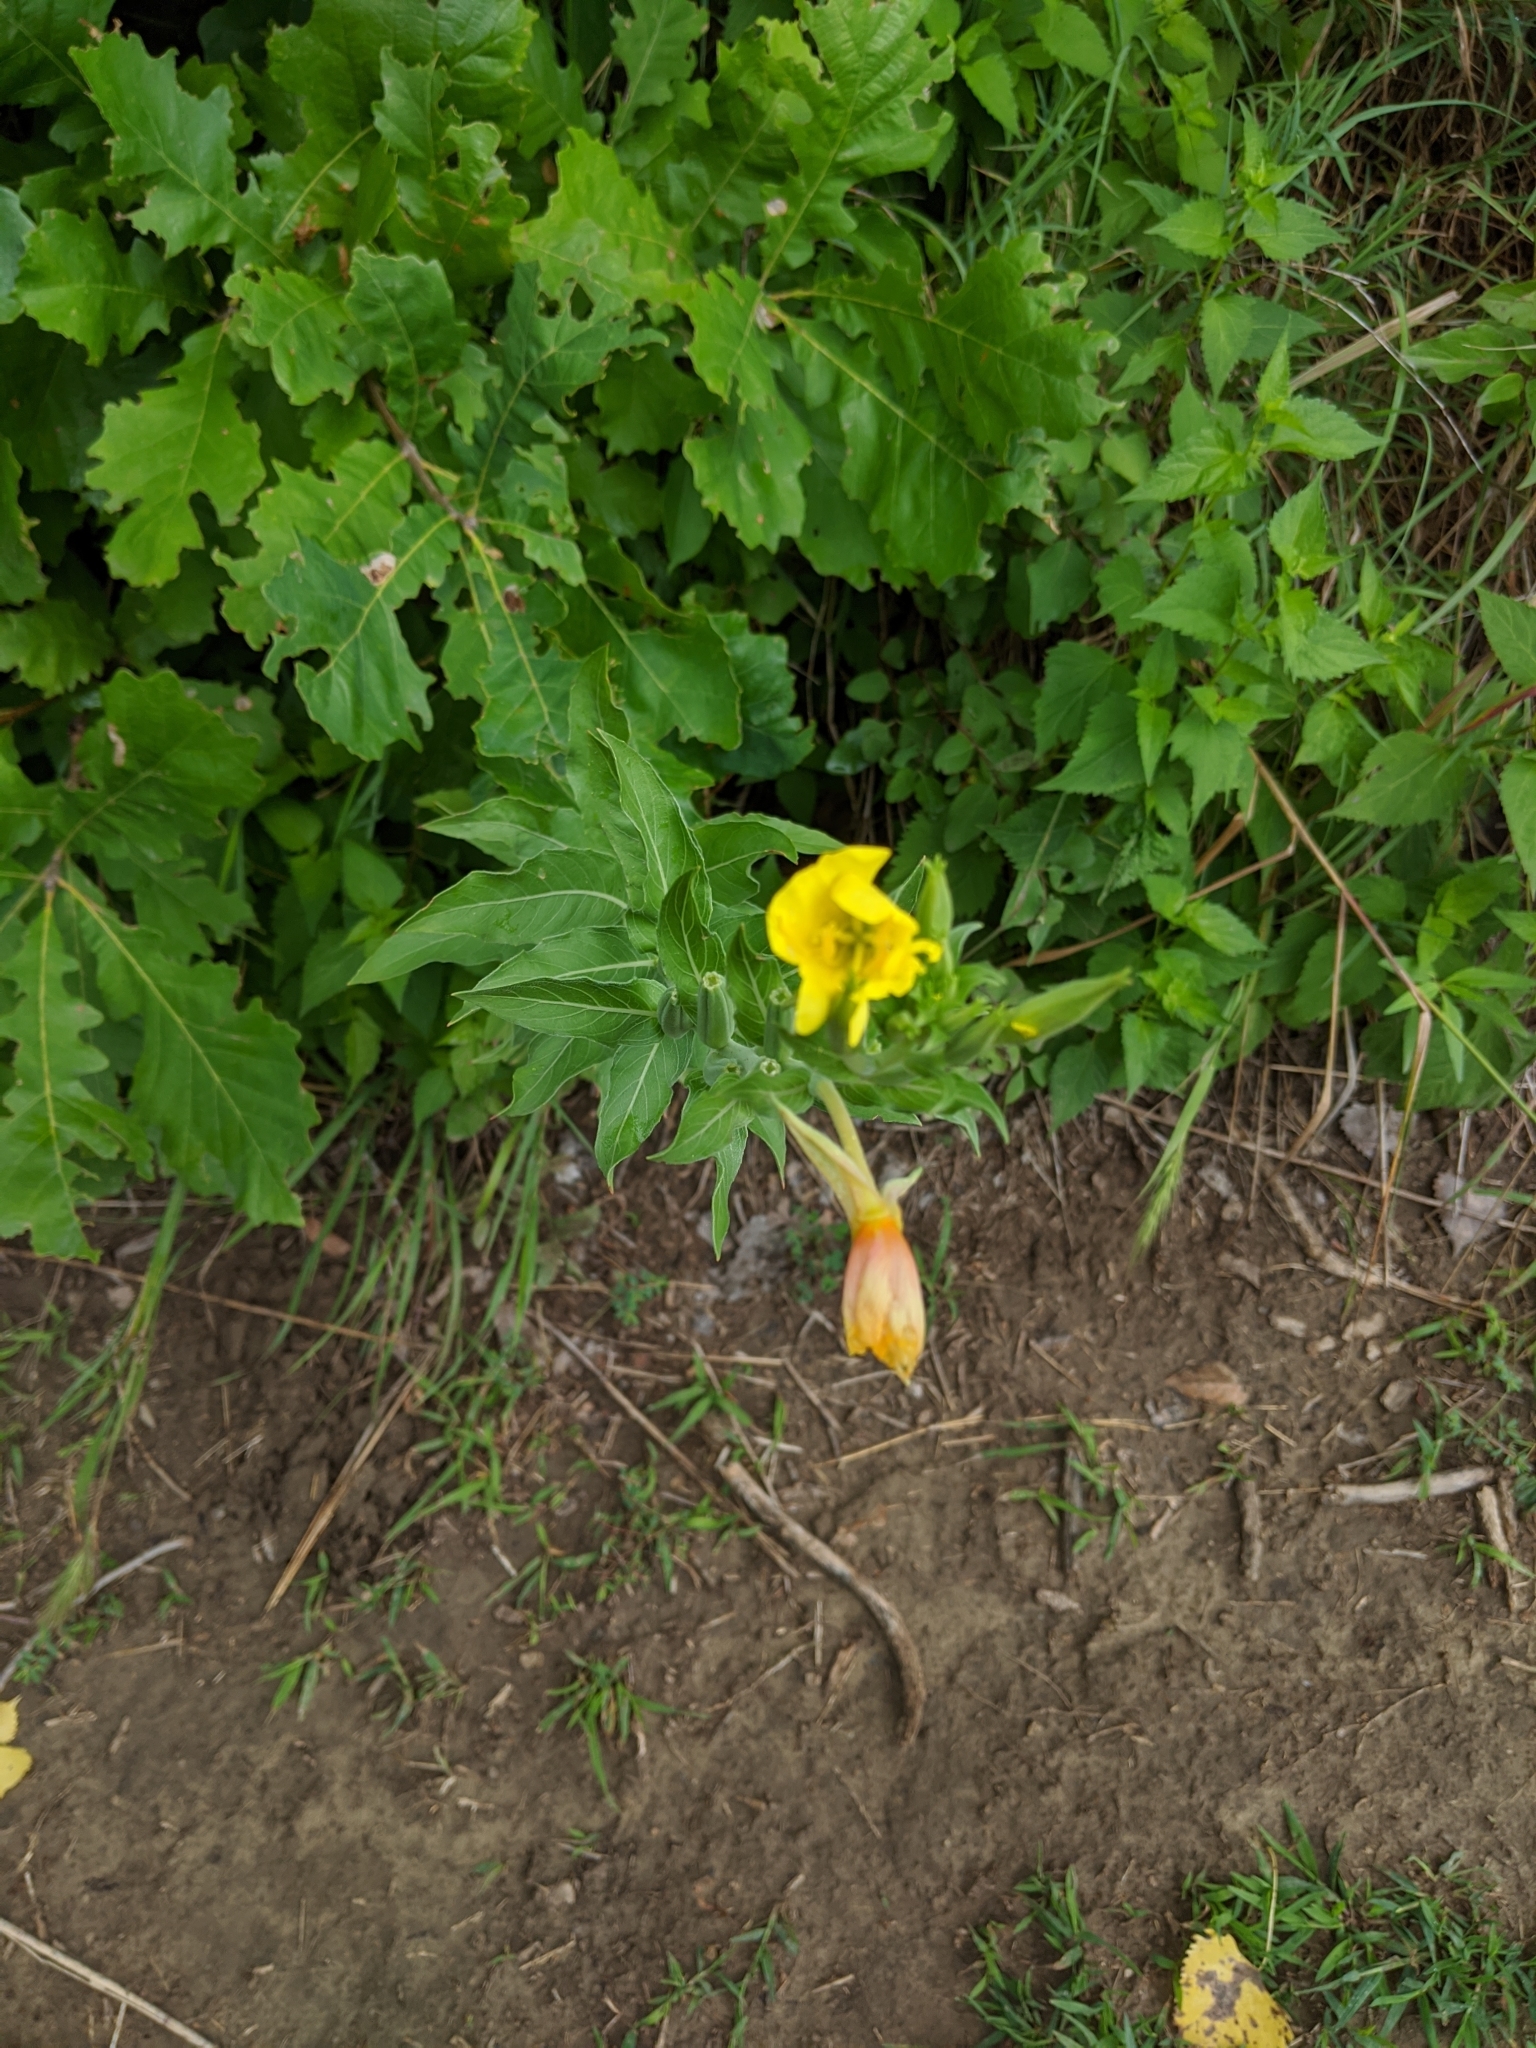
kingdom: Plantae
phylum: Tracheophyta
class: Magnoliopsida
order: Myrtales
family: Onagraceae
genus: Oenothera
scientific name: Oenothera biennis
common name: Common evening-primrose
